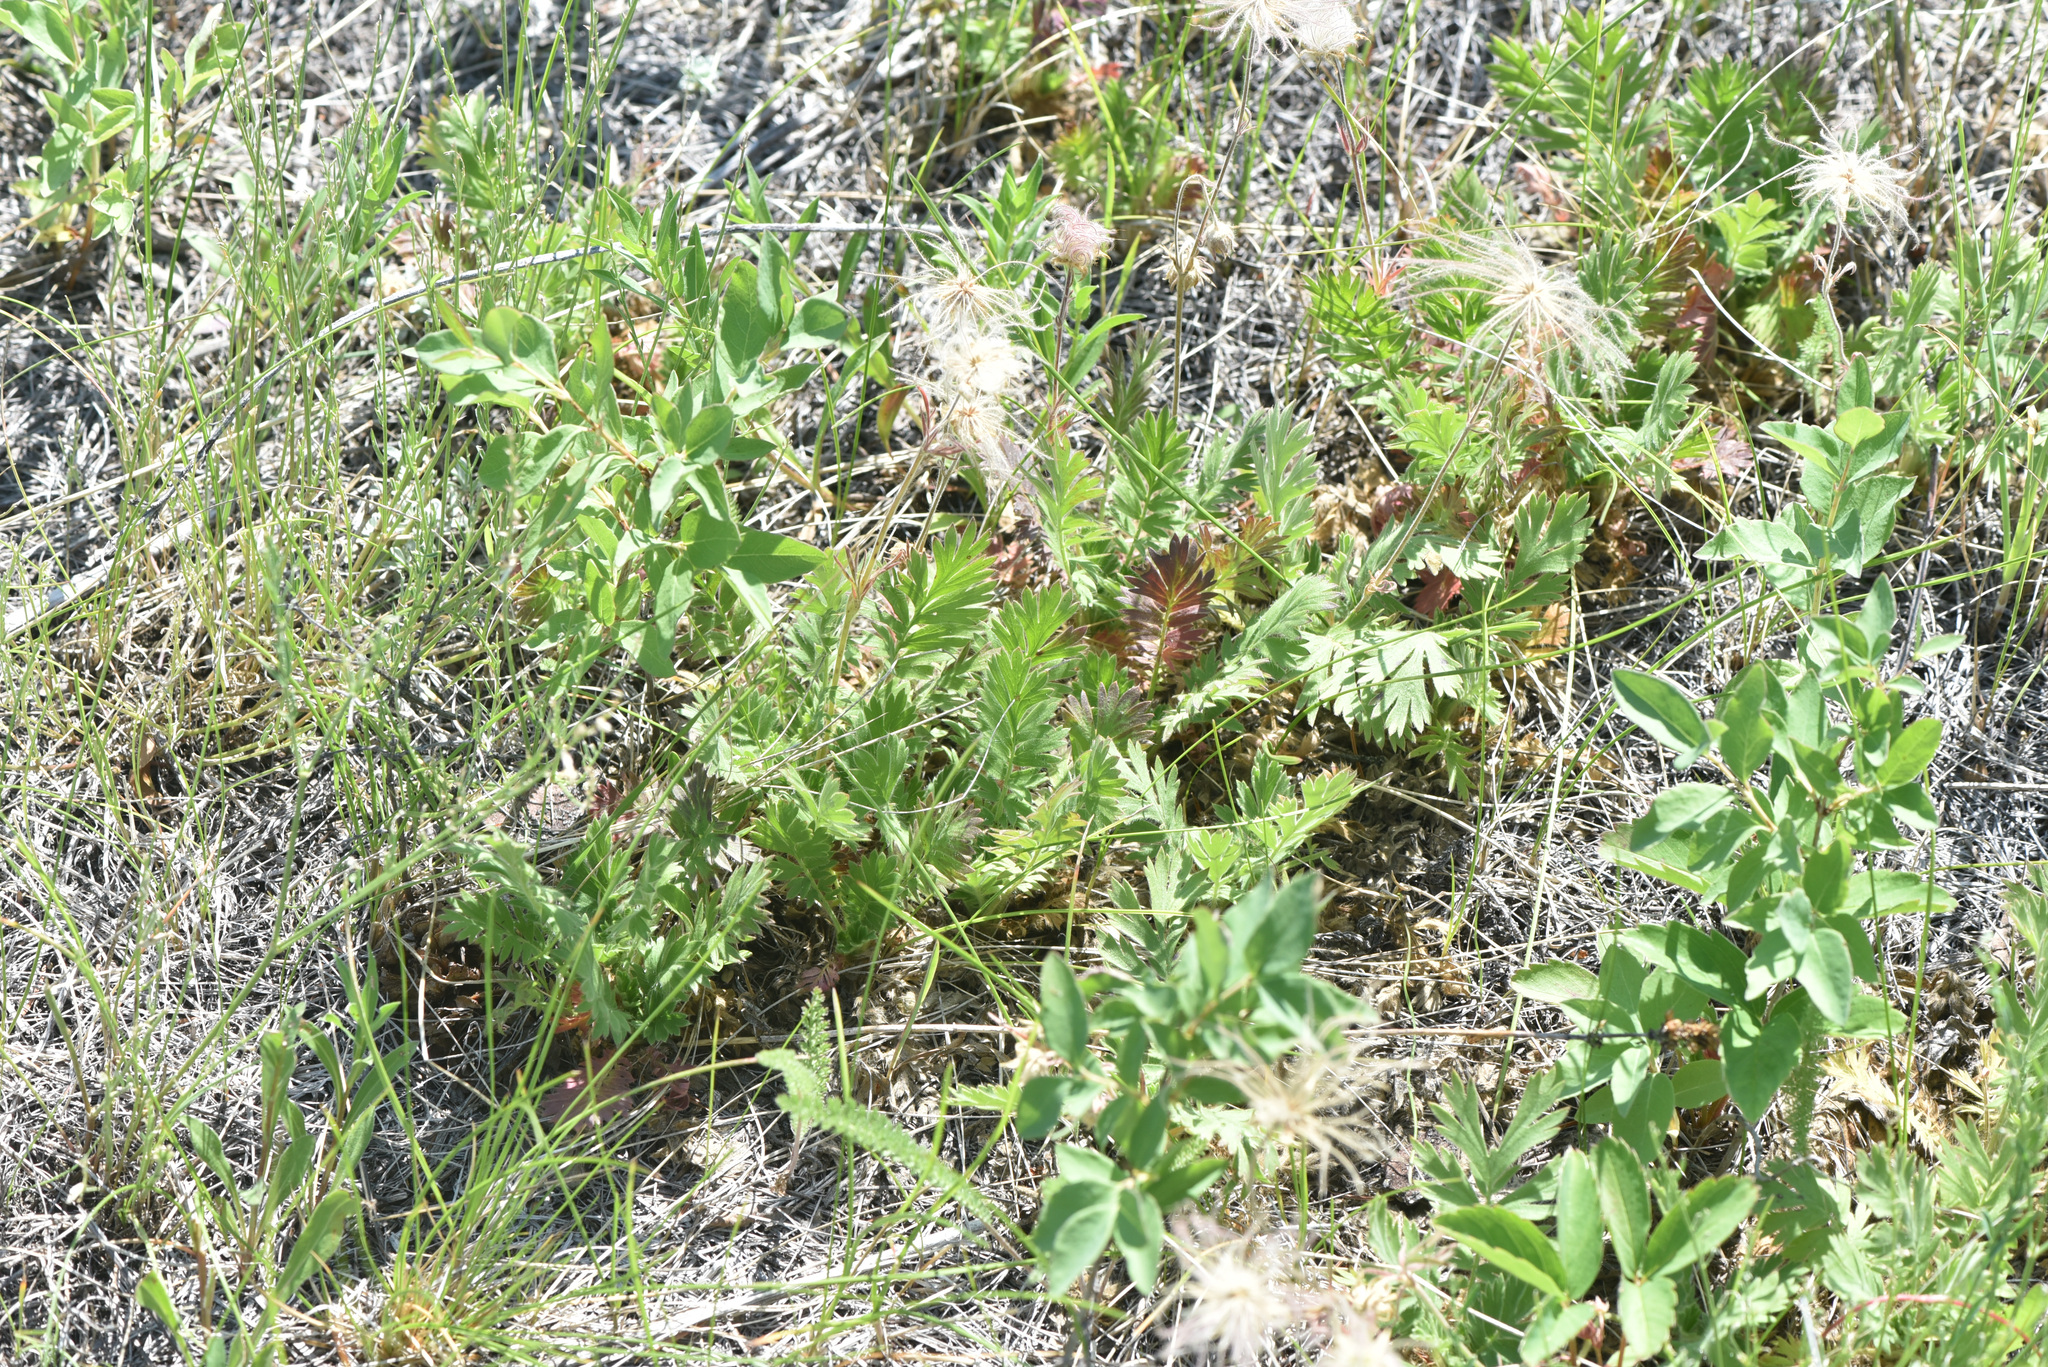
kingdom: Plantae
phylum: Tracheophyta
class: Magnoliopsida
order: Rosales
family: Rosaceae
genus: Geum
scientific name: Geum triflorum
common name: Old man's whiskers
